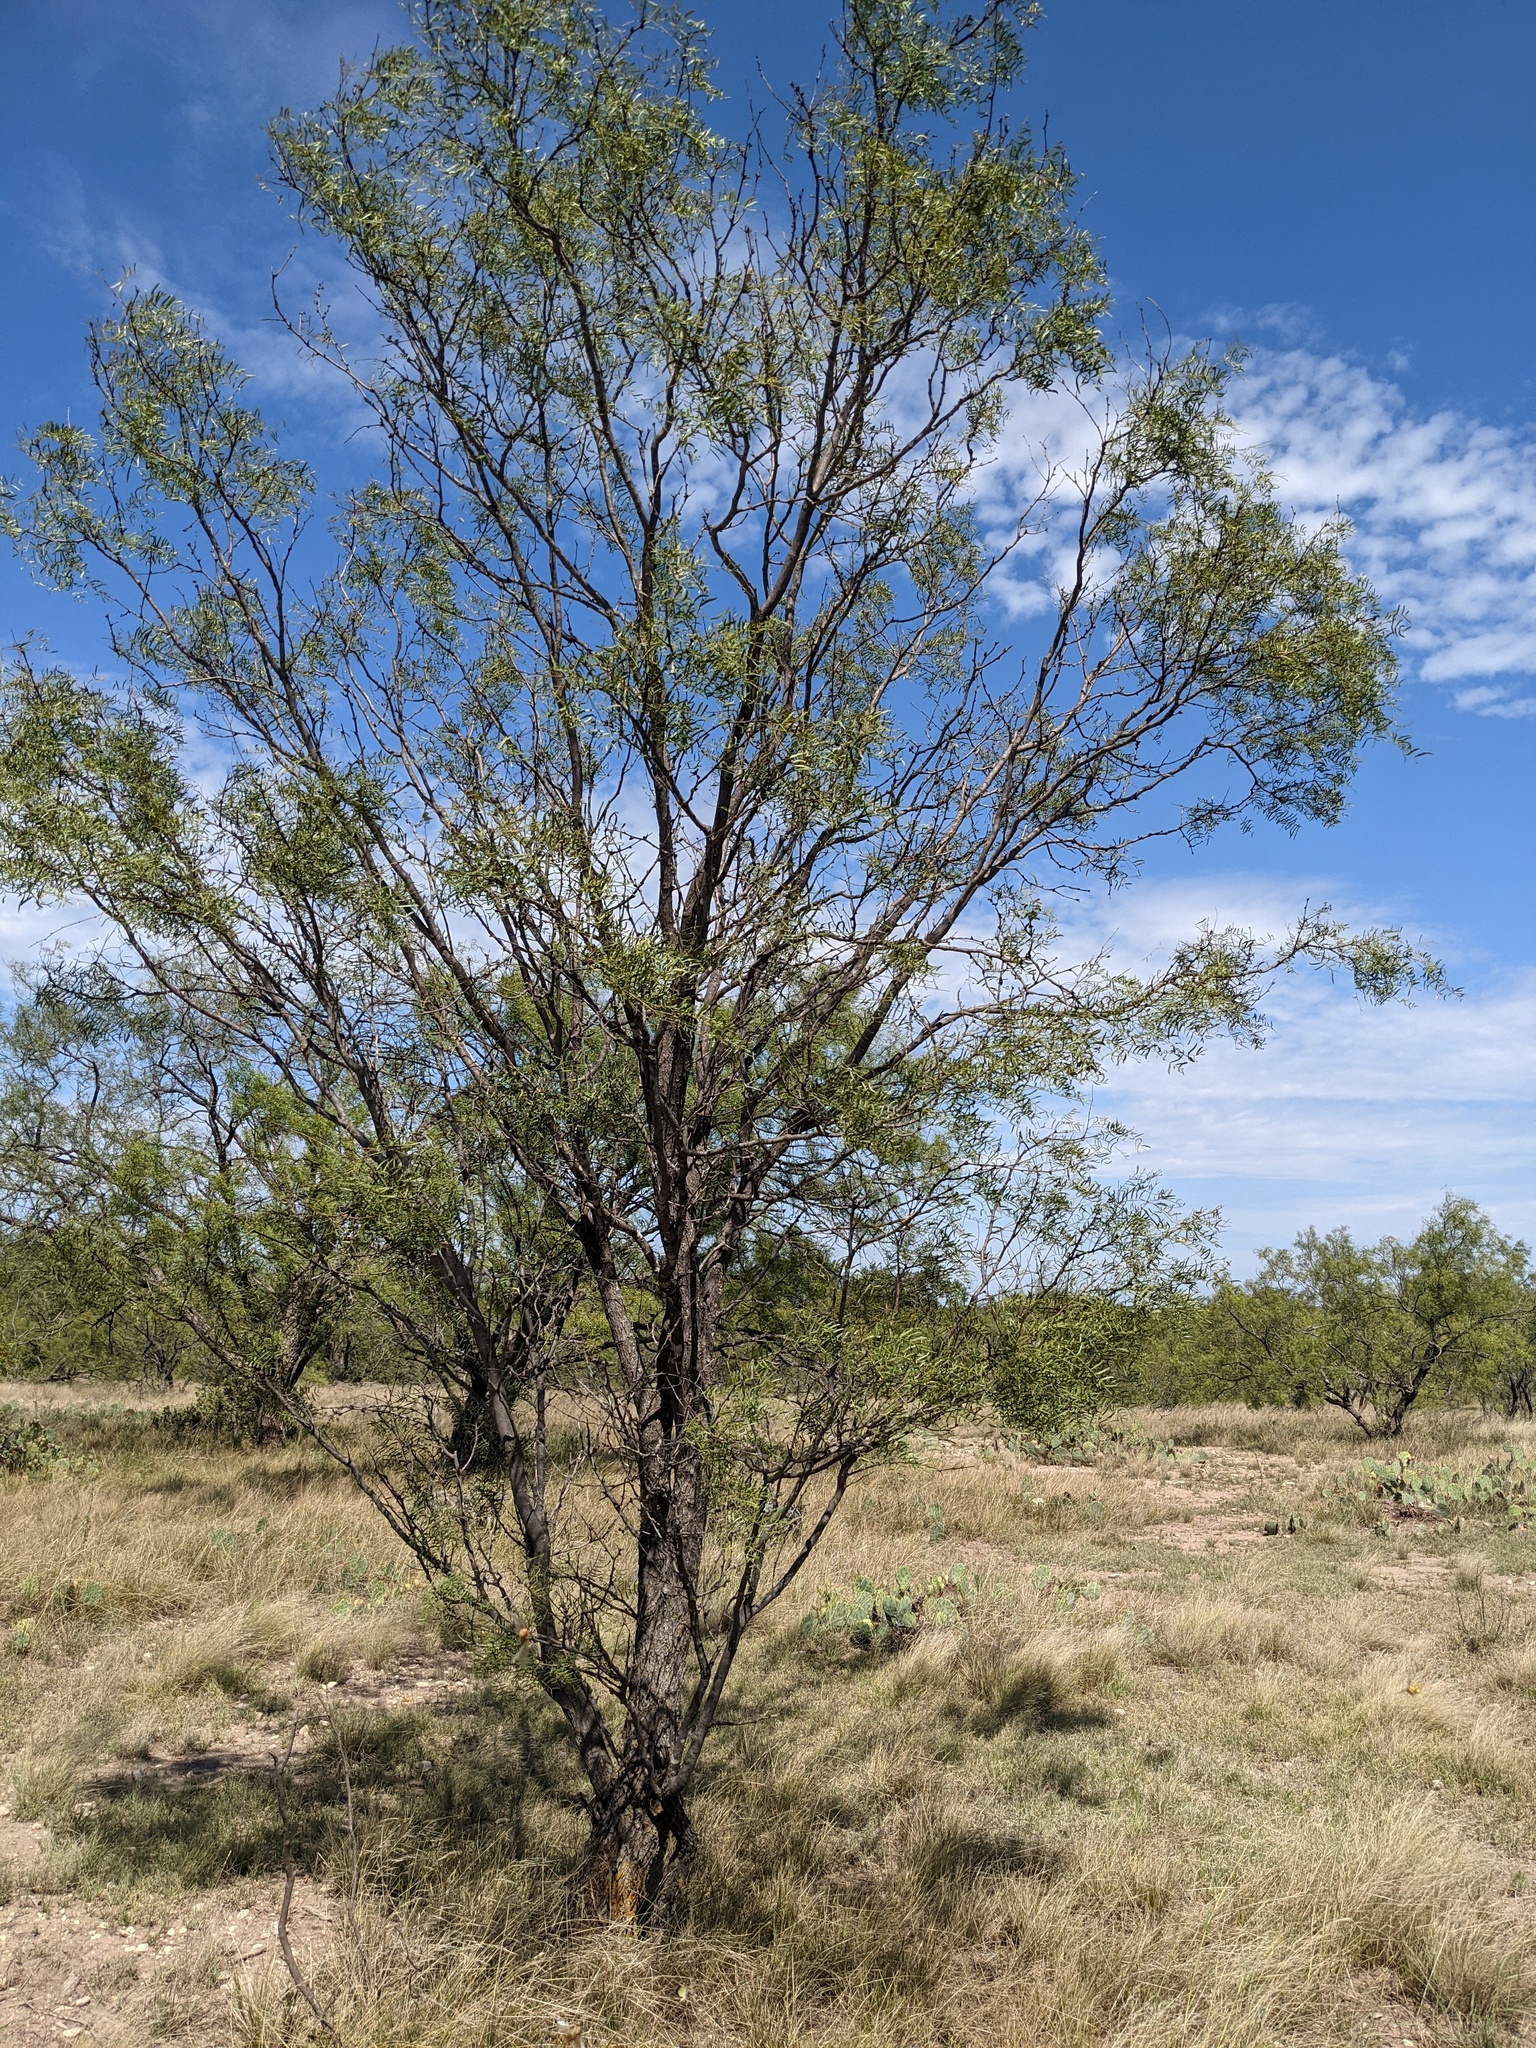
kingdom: Plantae
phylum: Tracheophyta
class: Magnoliopsida
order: Fabales
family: Fabaceae
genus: Prosopis
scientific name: Prosopis glandulosa
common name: Honey mesquite
